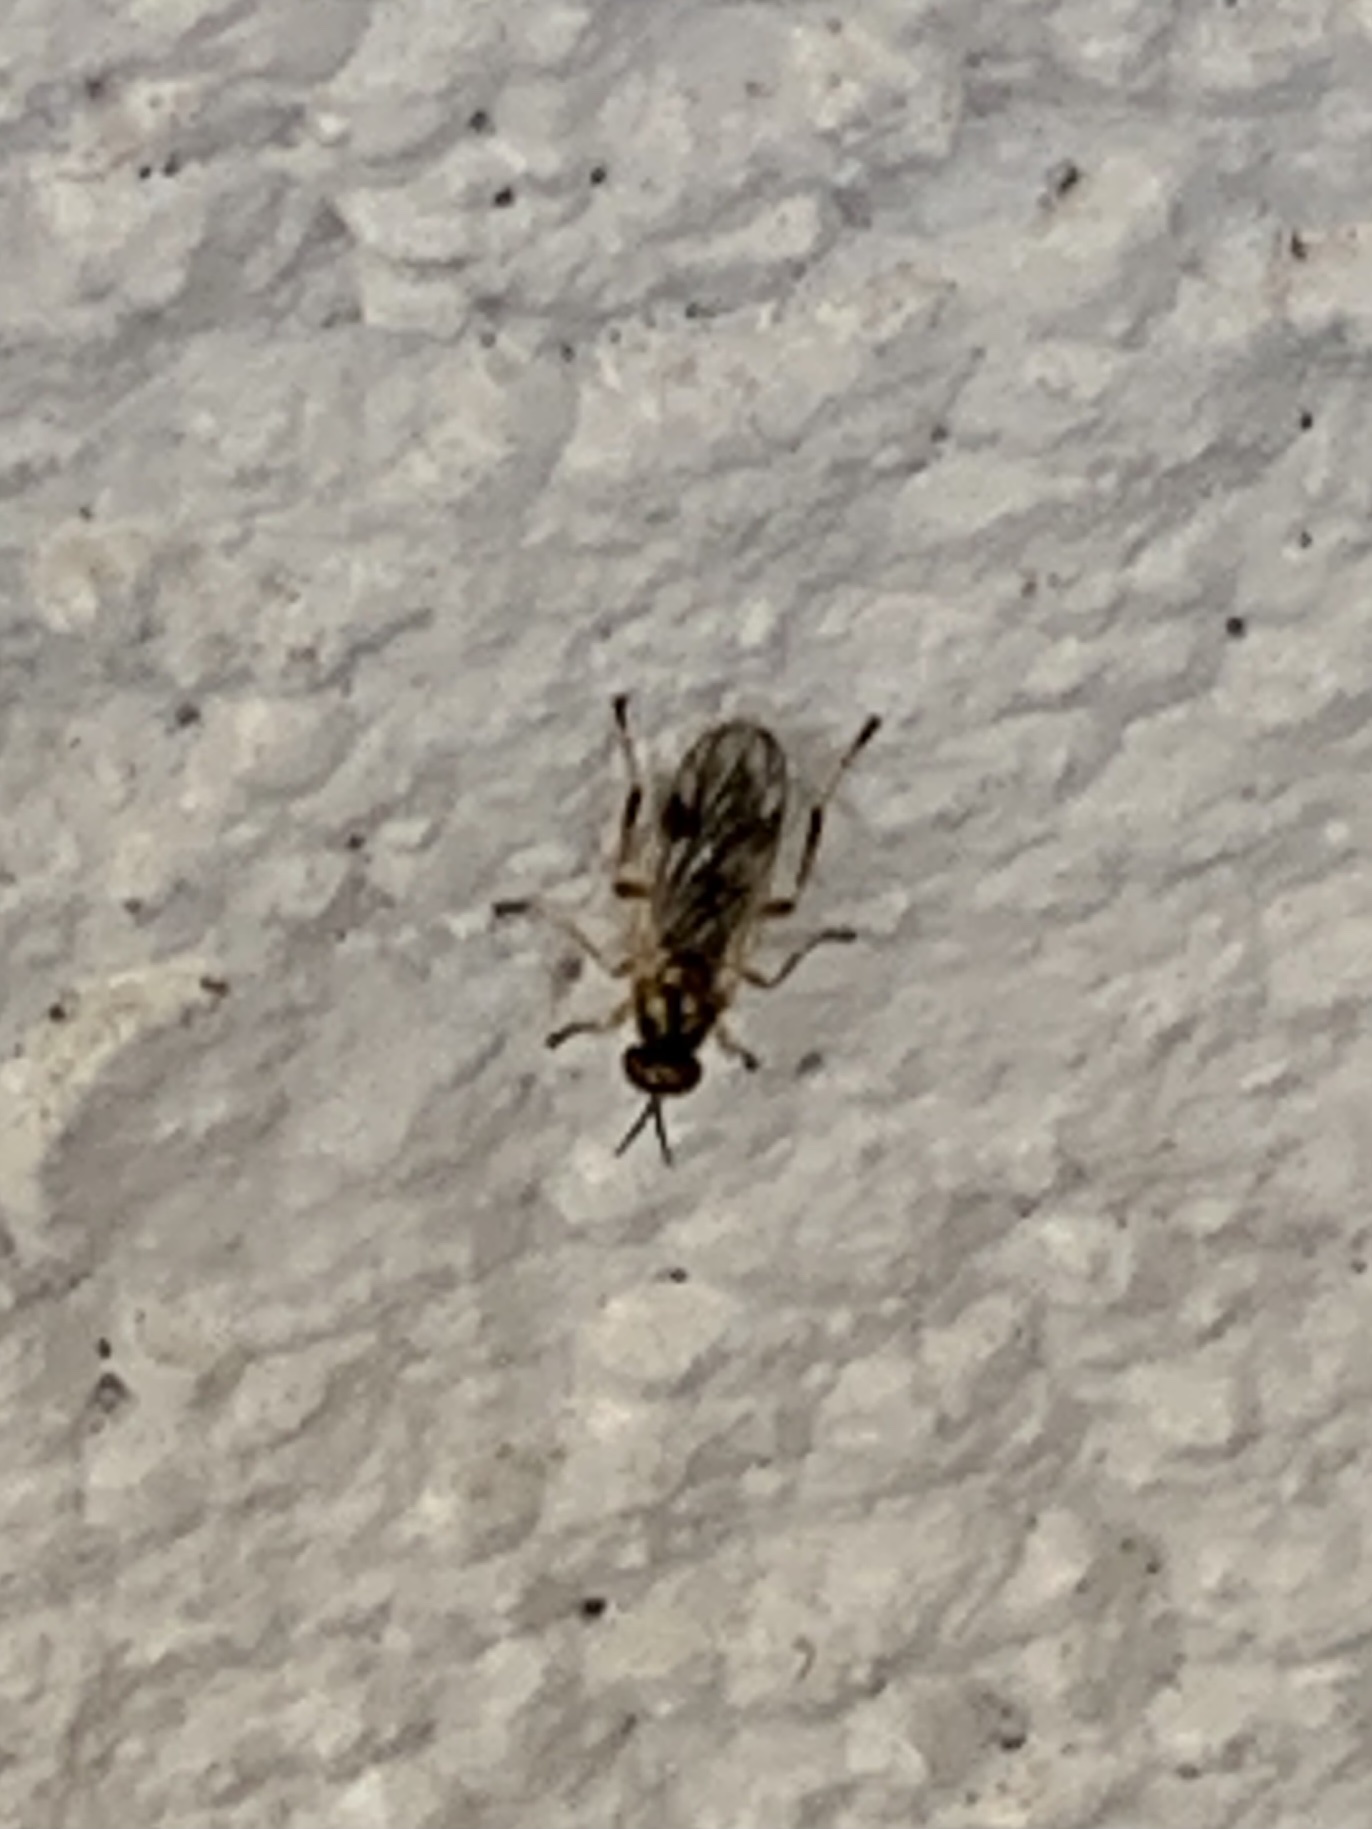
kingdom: Animalia
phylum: Arthropoda
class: Insecta
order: Diptera
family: Stratiomyidae
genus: Actina
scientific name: Actina viridis
